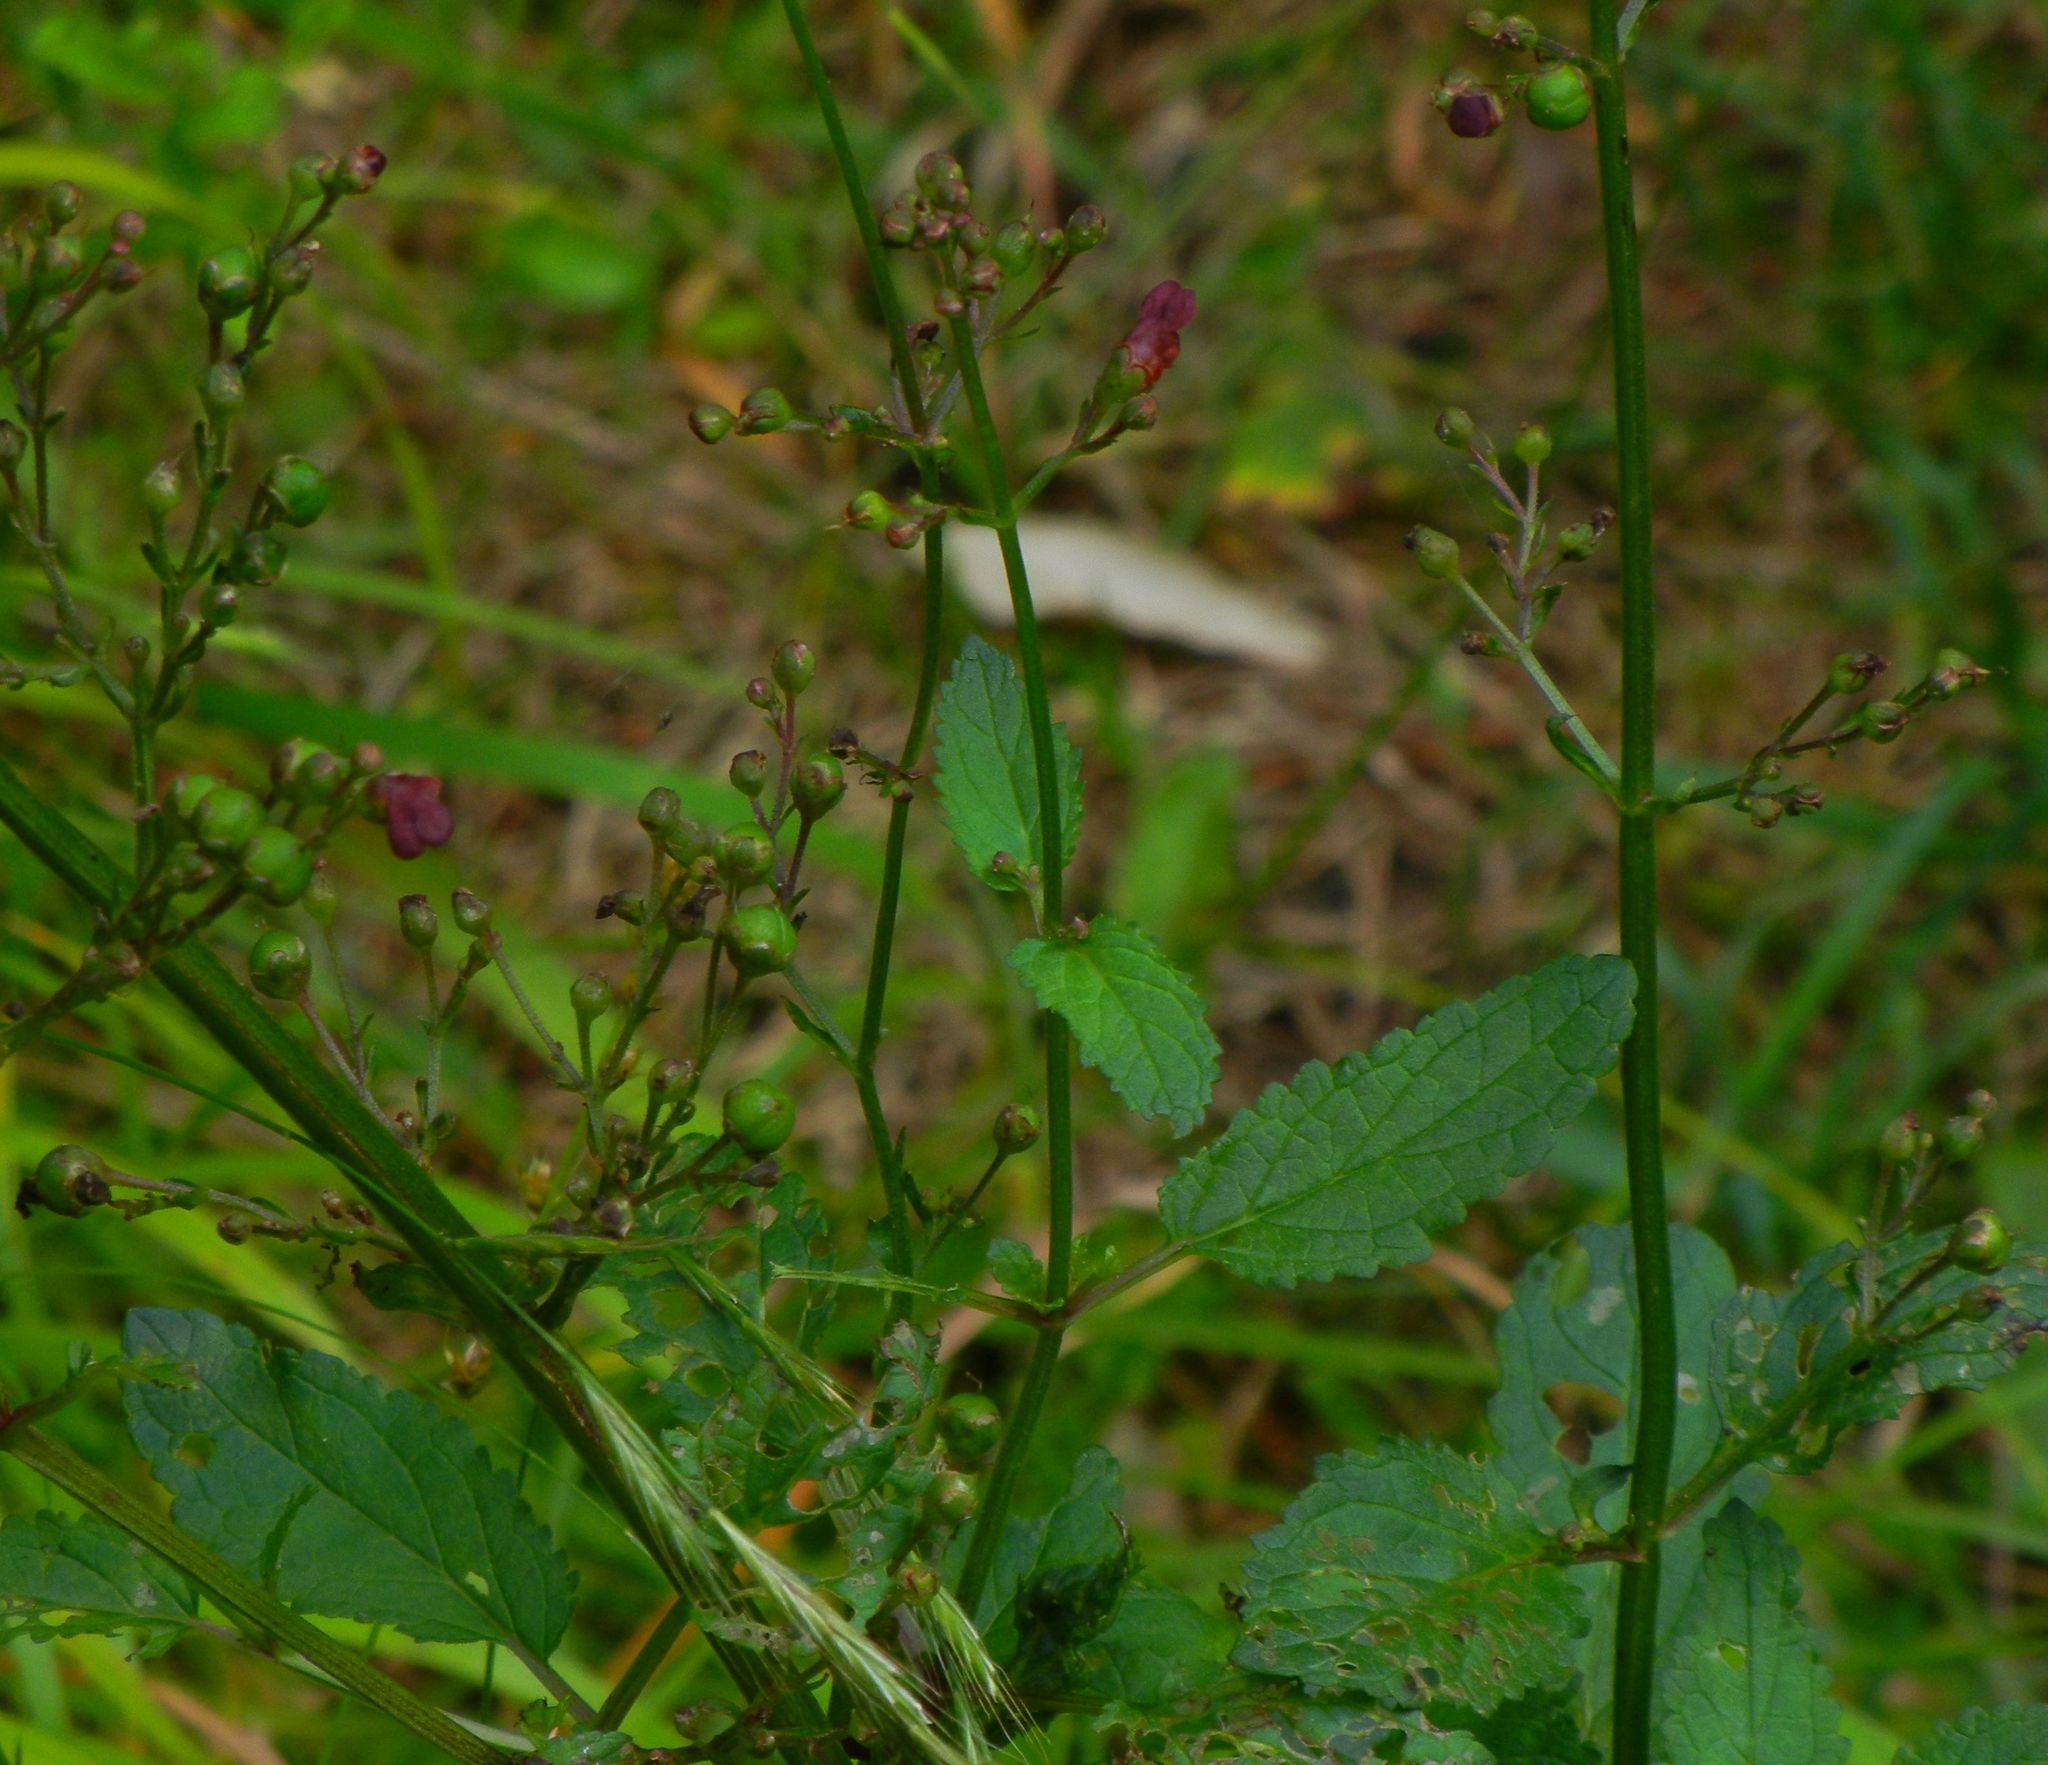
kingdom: Plantae
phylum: Tracheophyta
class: Magnoliopsida
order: Lamiales
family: Scrophulariaceae
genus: Scrophularia
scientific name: Scrophularia auriculata
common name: Water betony
